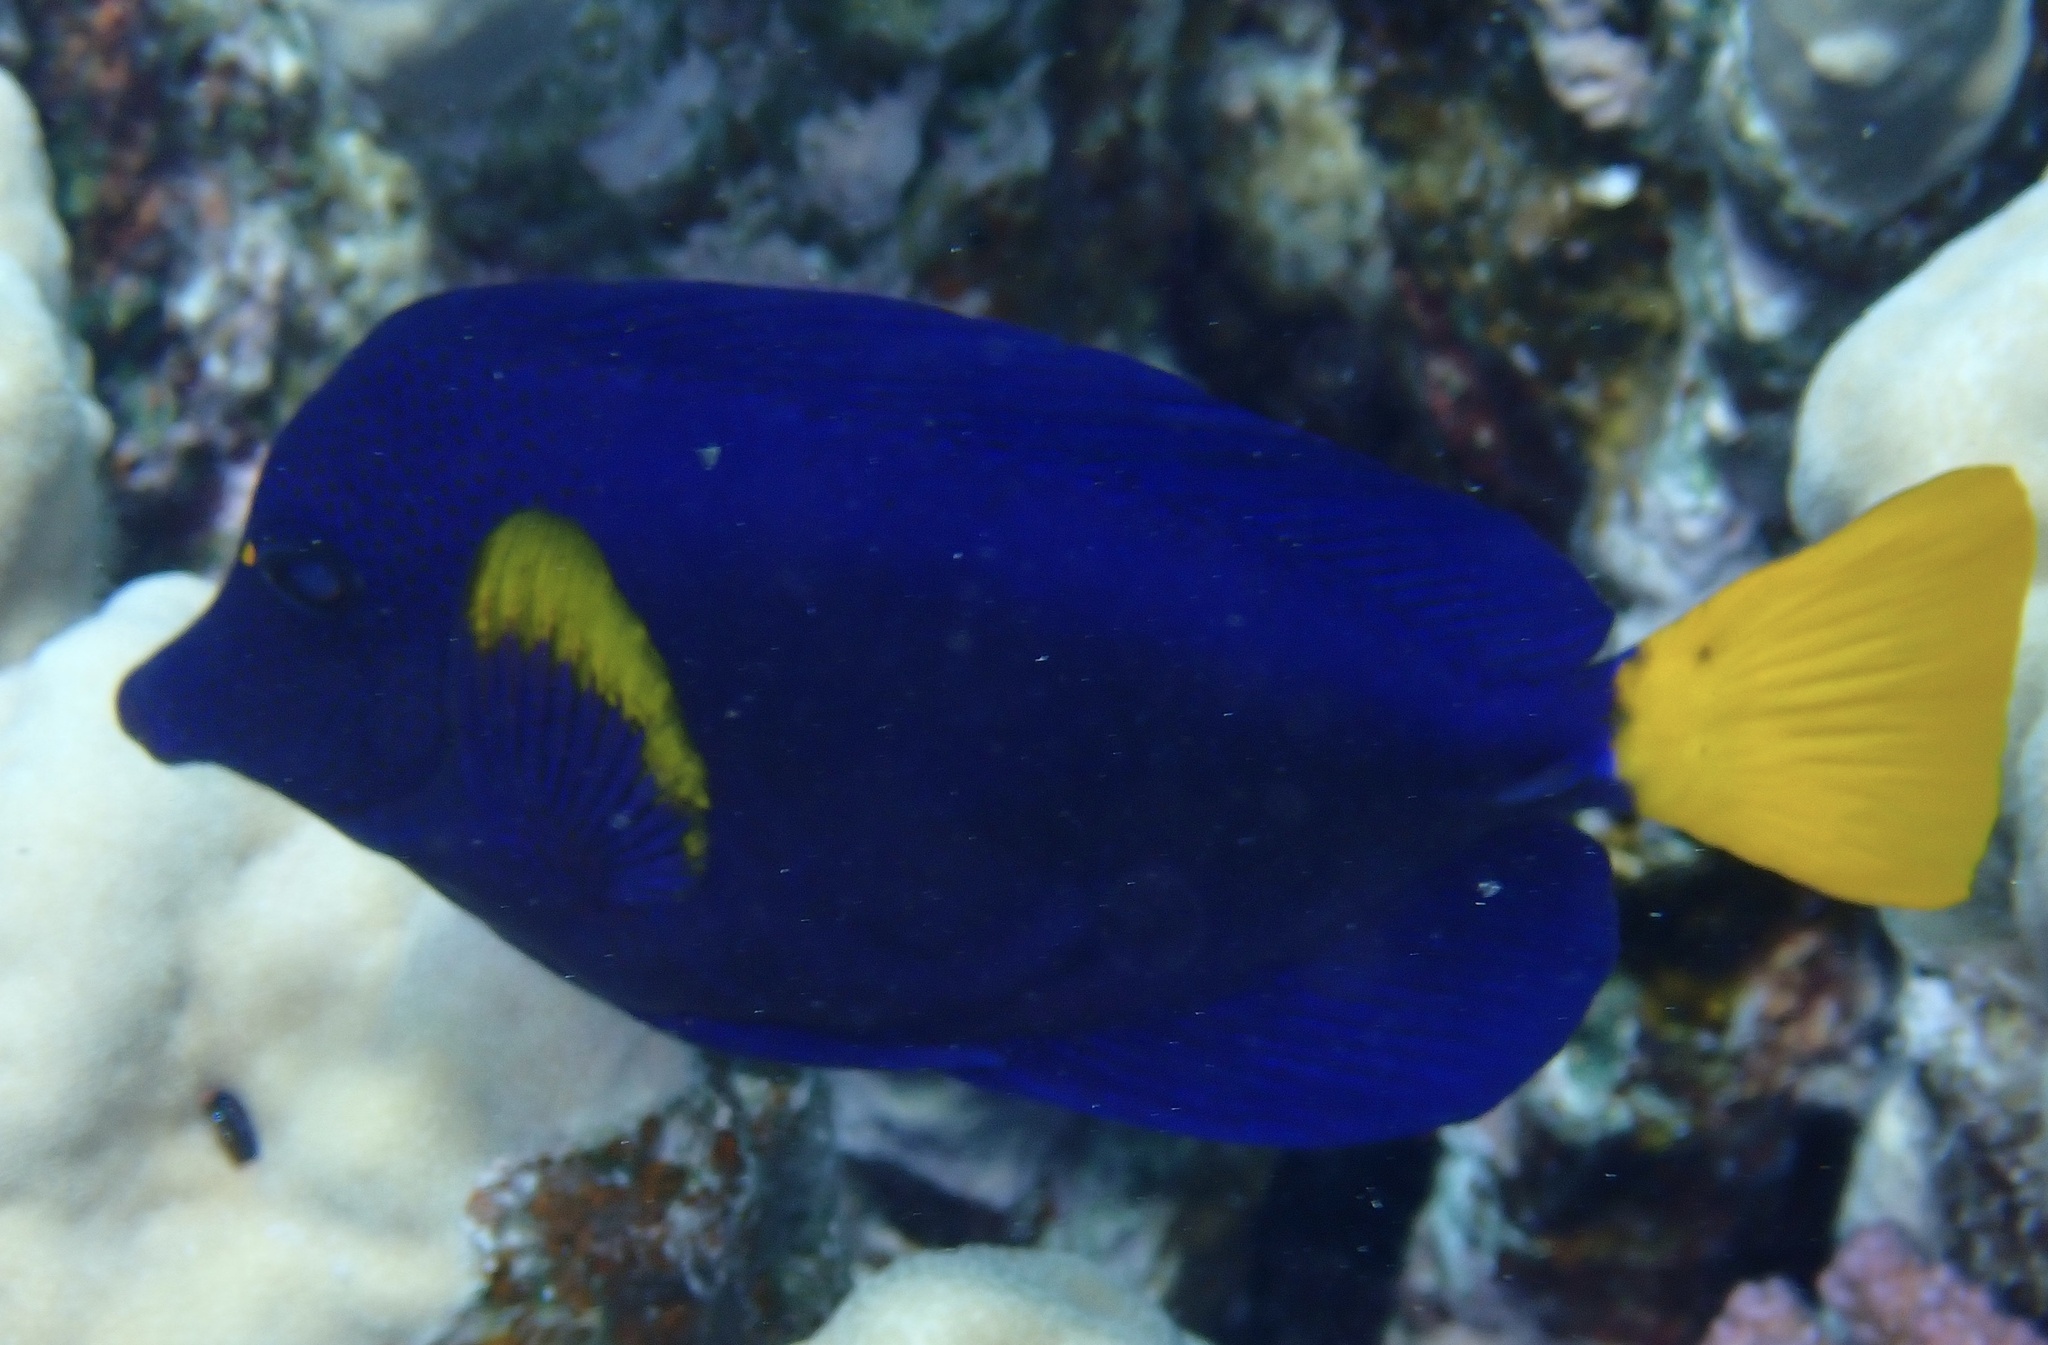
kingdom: Animalia
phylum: Chordata
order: Perciformes
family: Acanthuridae
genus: Zebrasoma
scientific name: Zebrasoma xanthurum
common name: Purple tang
